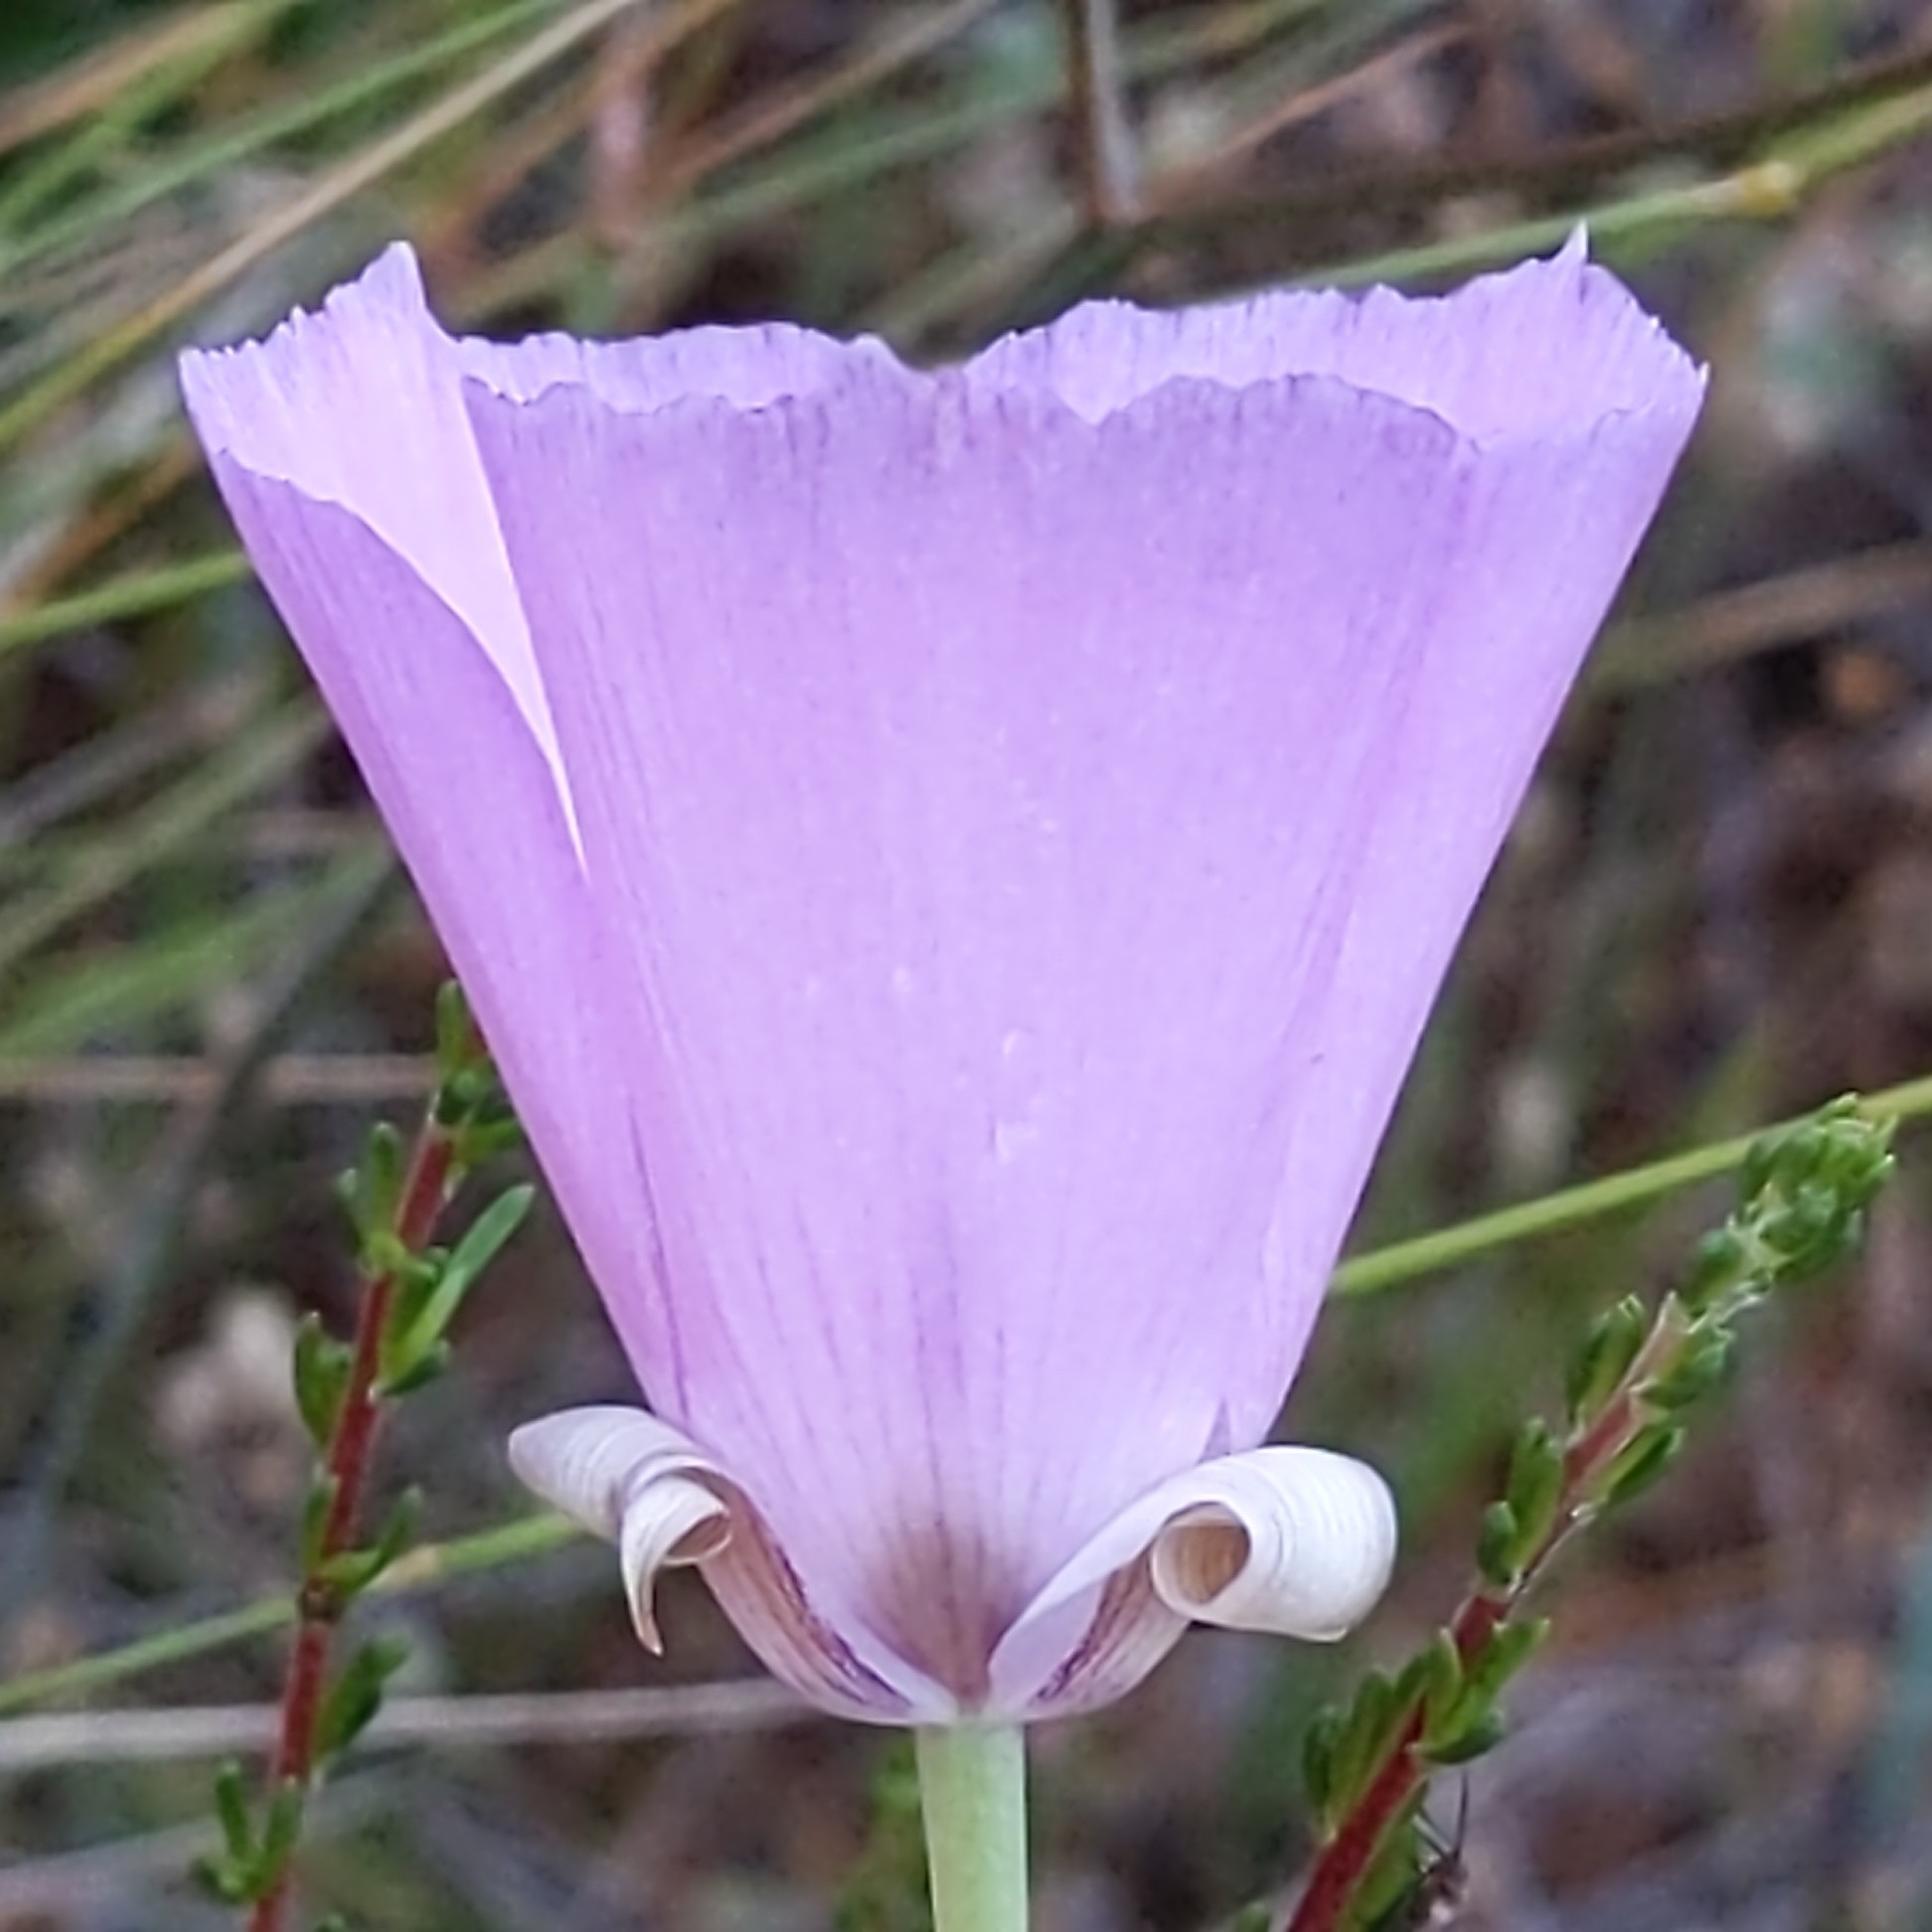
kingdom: Plantae
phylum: Tracheophyta
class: Liliopsida
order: Liliales
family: Liliaceae
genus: Calochortus
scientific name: Calochortus splendens
